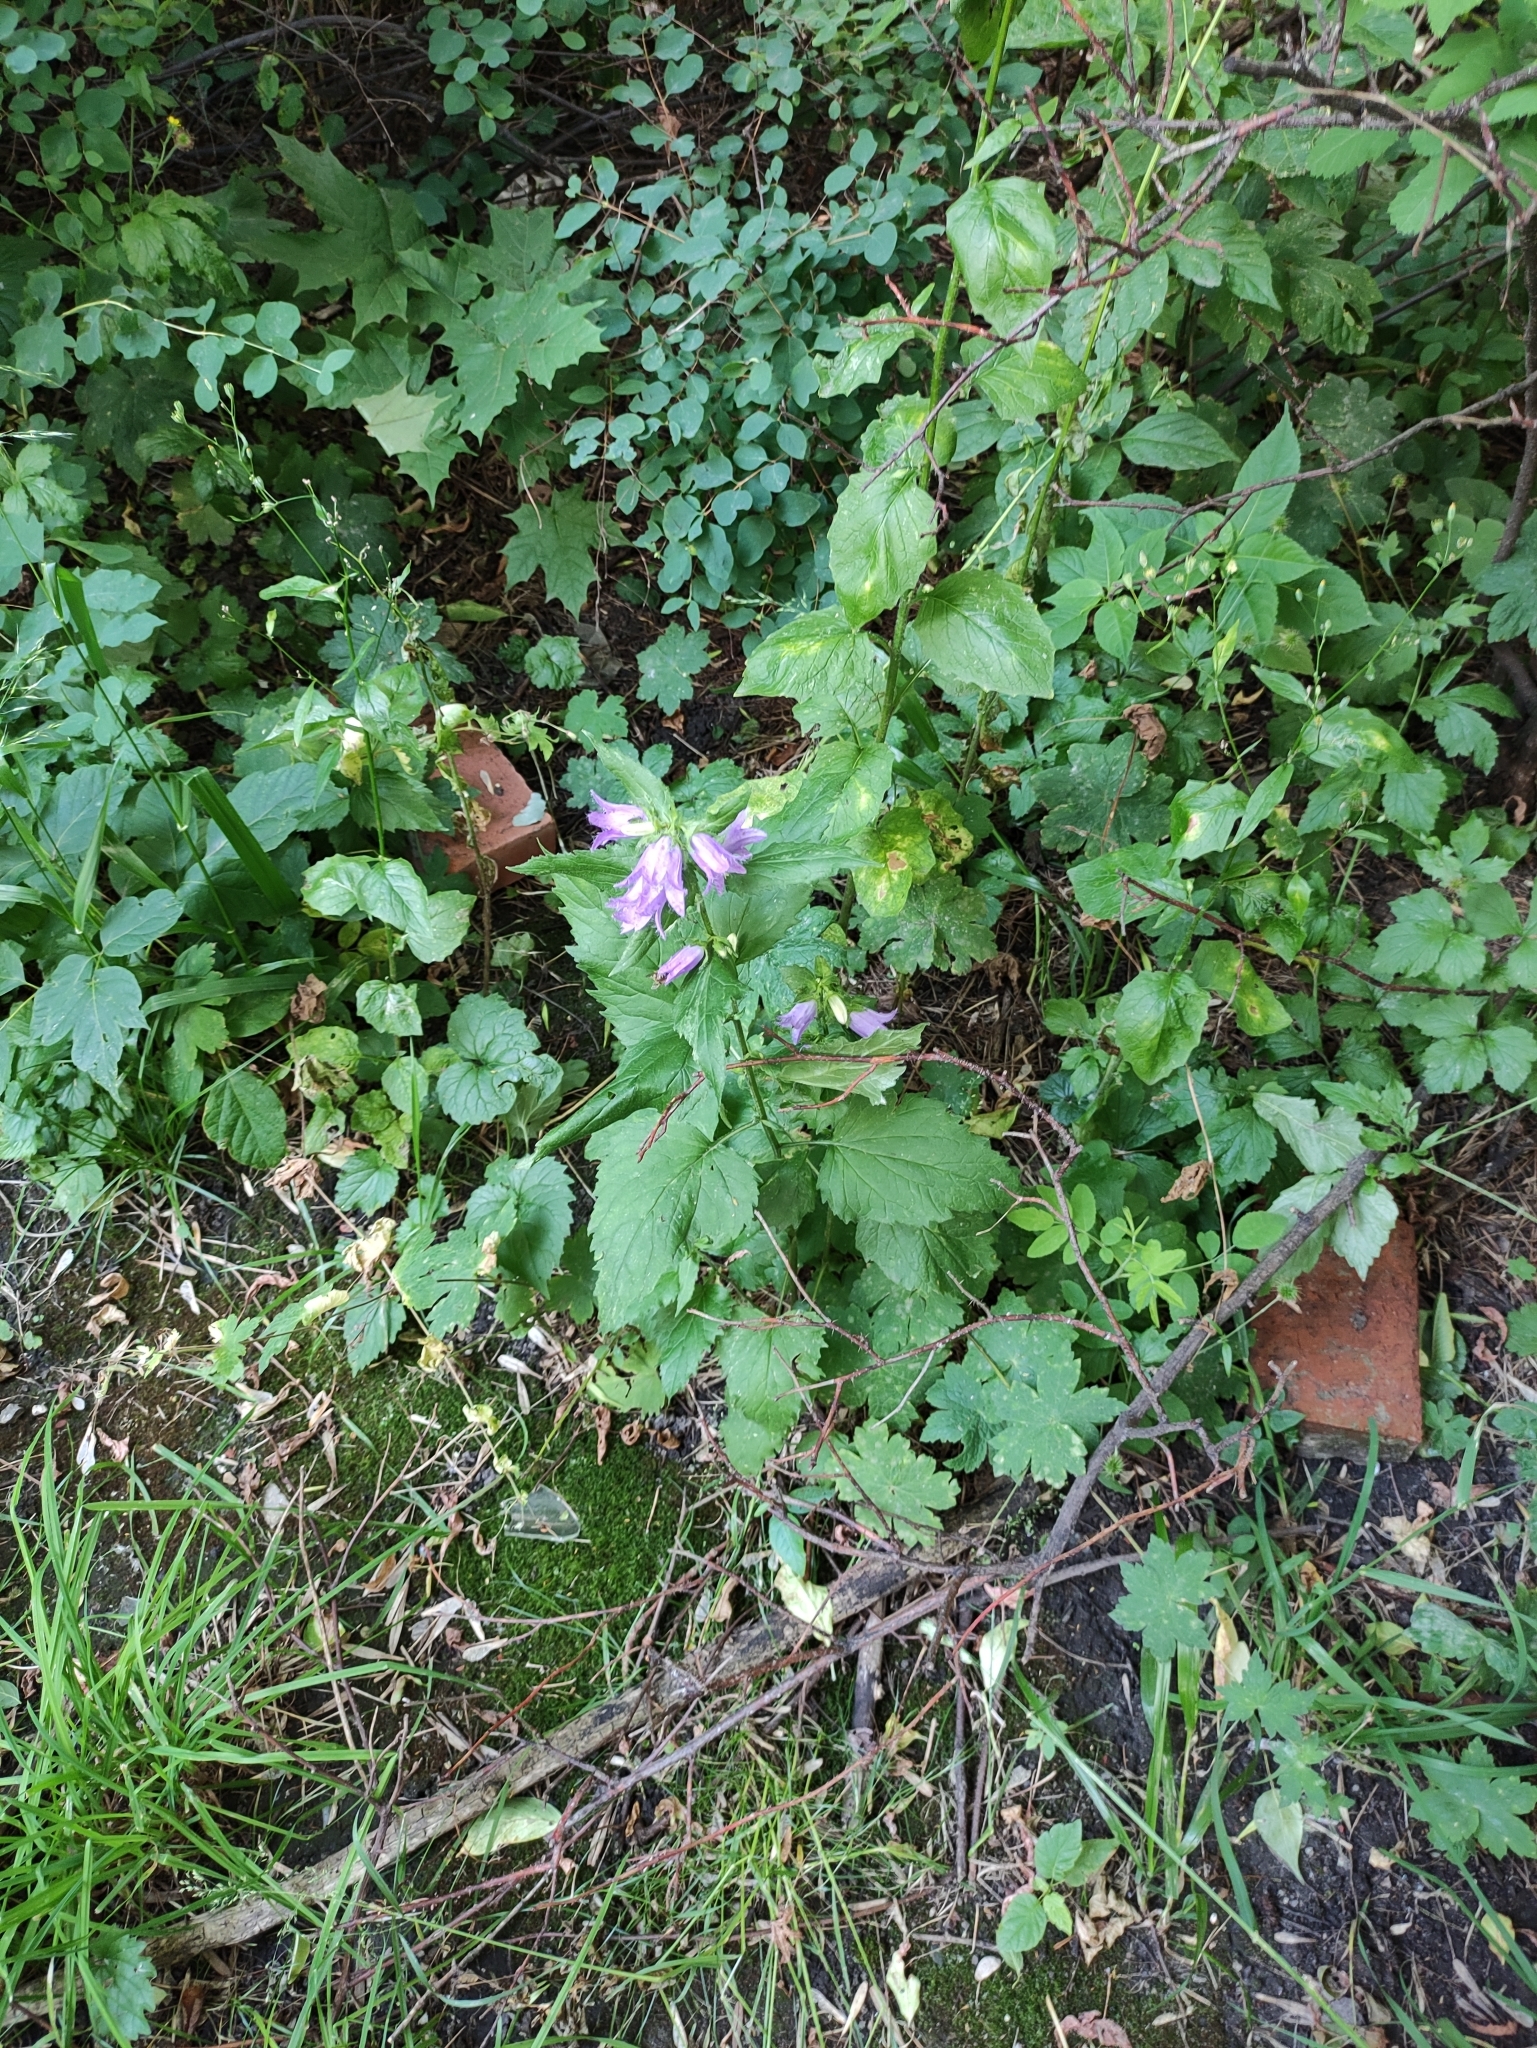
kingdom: Plantae
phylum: Tracheophyta
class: Magnoliopsida
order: Asterales
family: Campanulaceae
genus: Campanula
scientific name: Campanula trachelium
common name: Nettle-leaved bellflower
